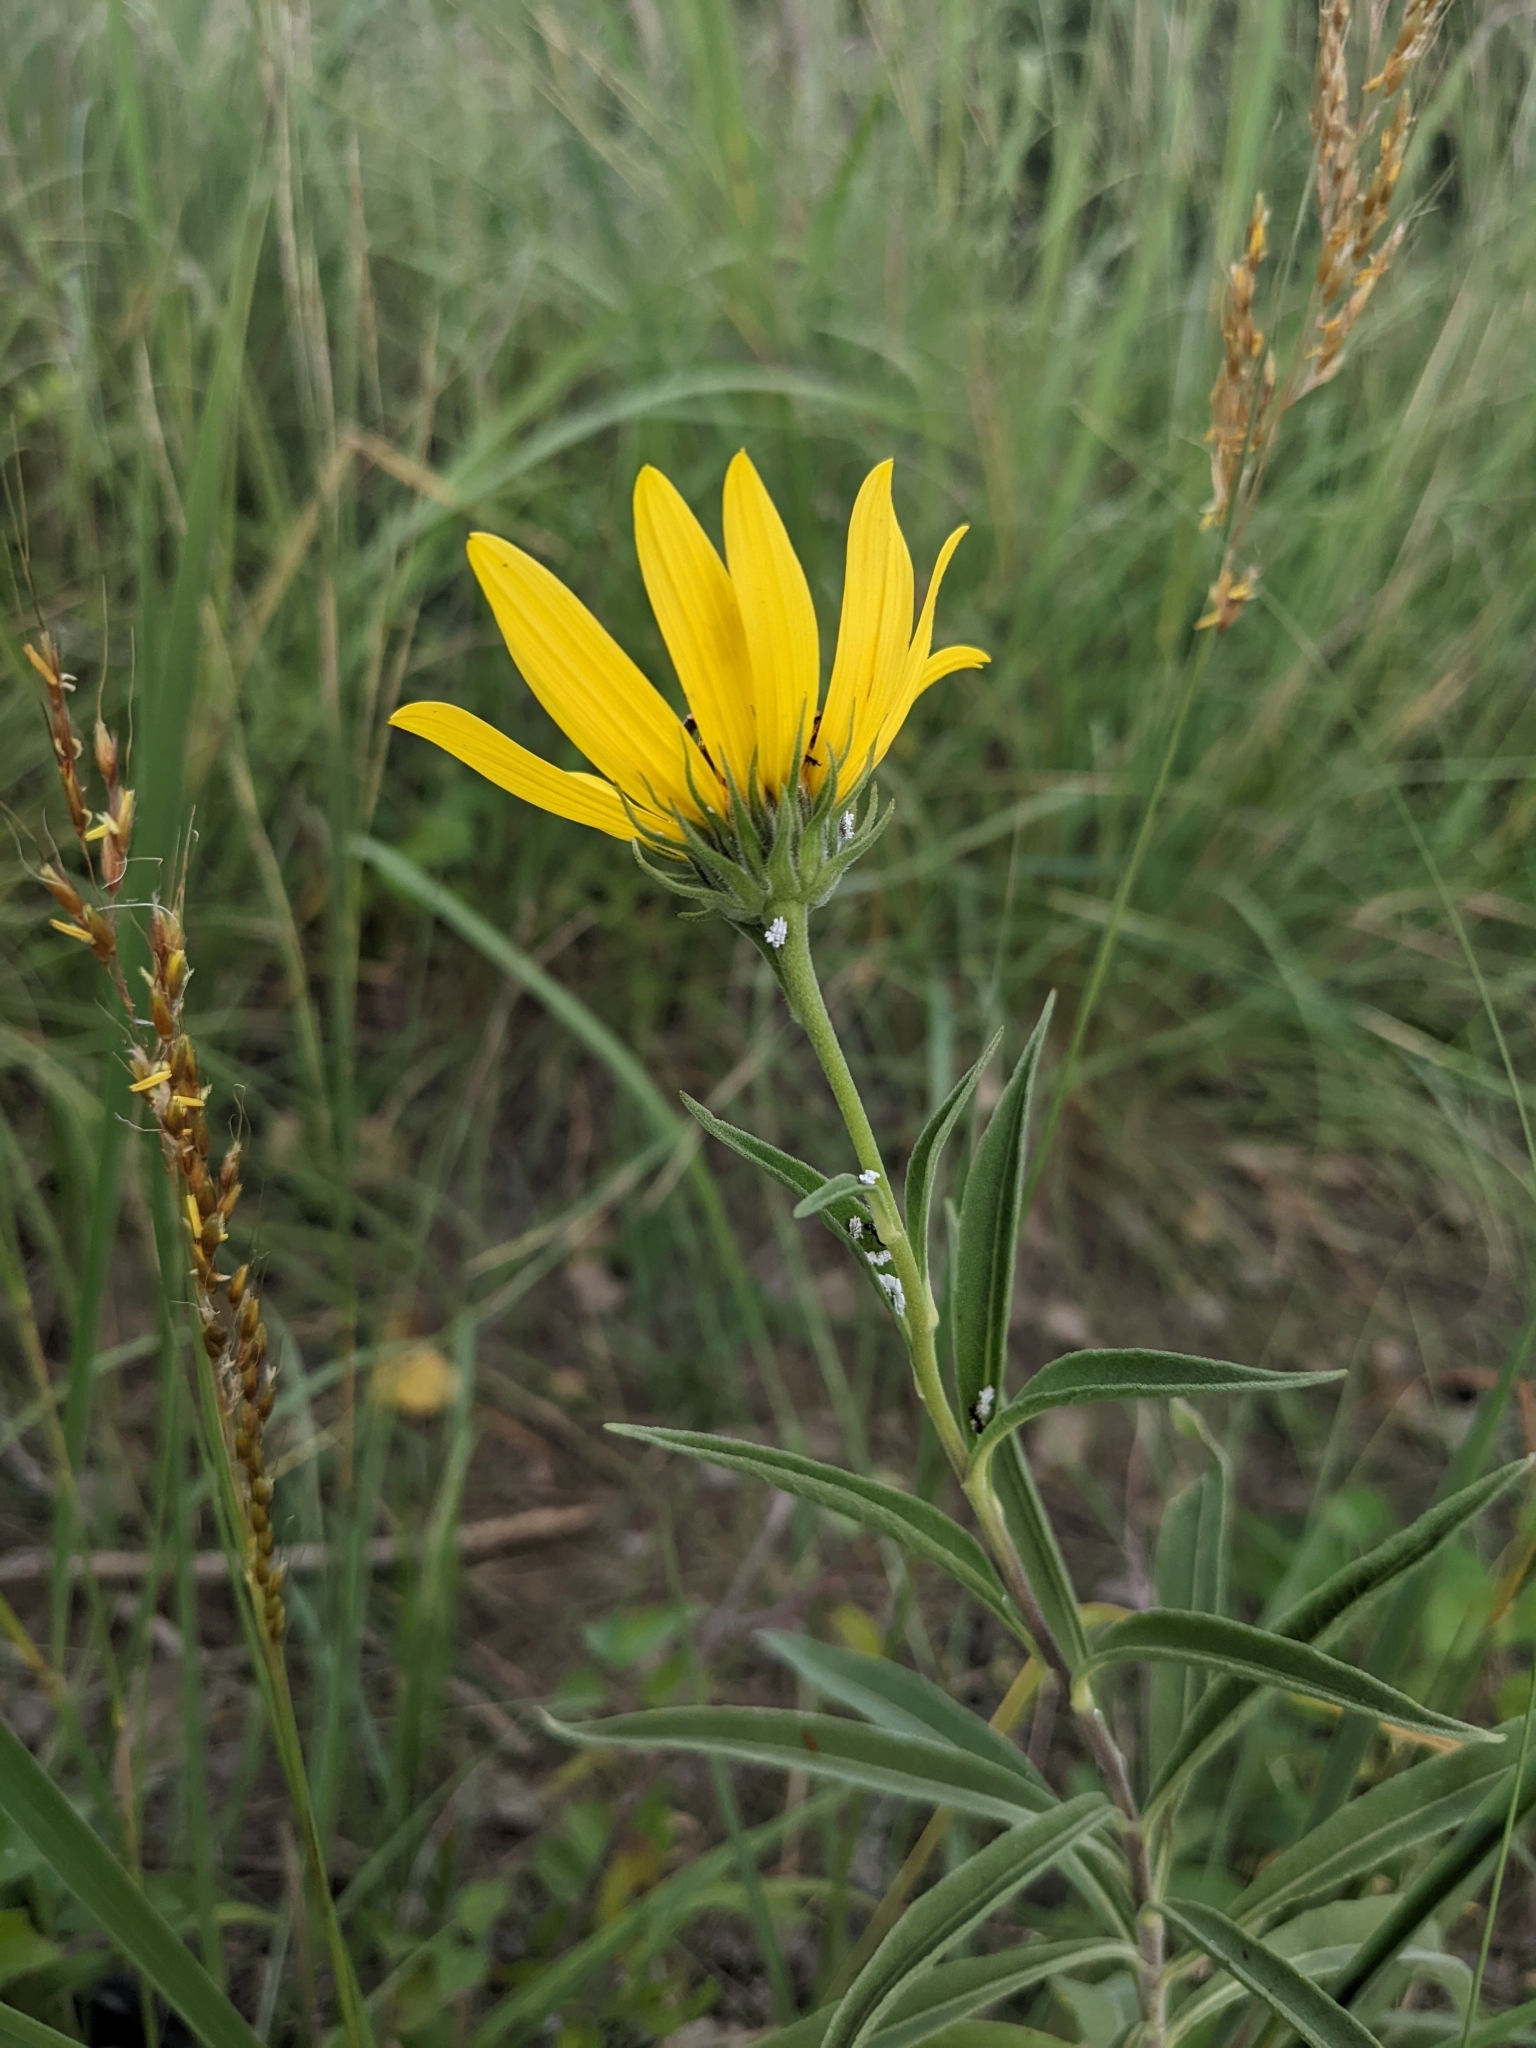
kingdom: Plantae
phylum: Tracheophyta
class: Magnoliopsida
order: Asterales
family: Asteraceae
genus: Helianthus
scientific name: Helianthus maximiliani
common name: Maximilian's sunflower
